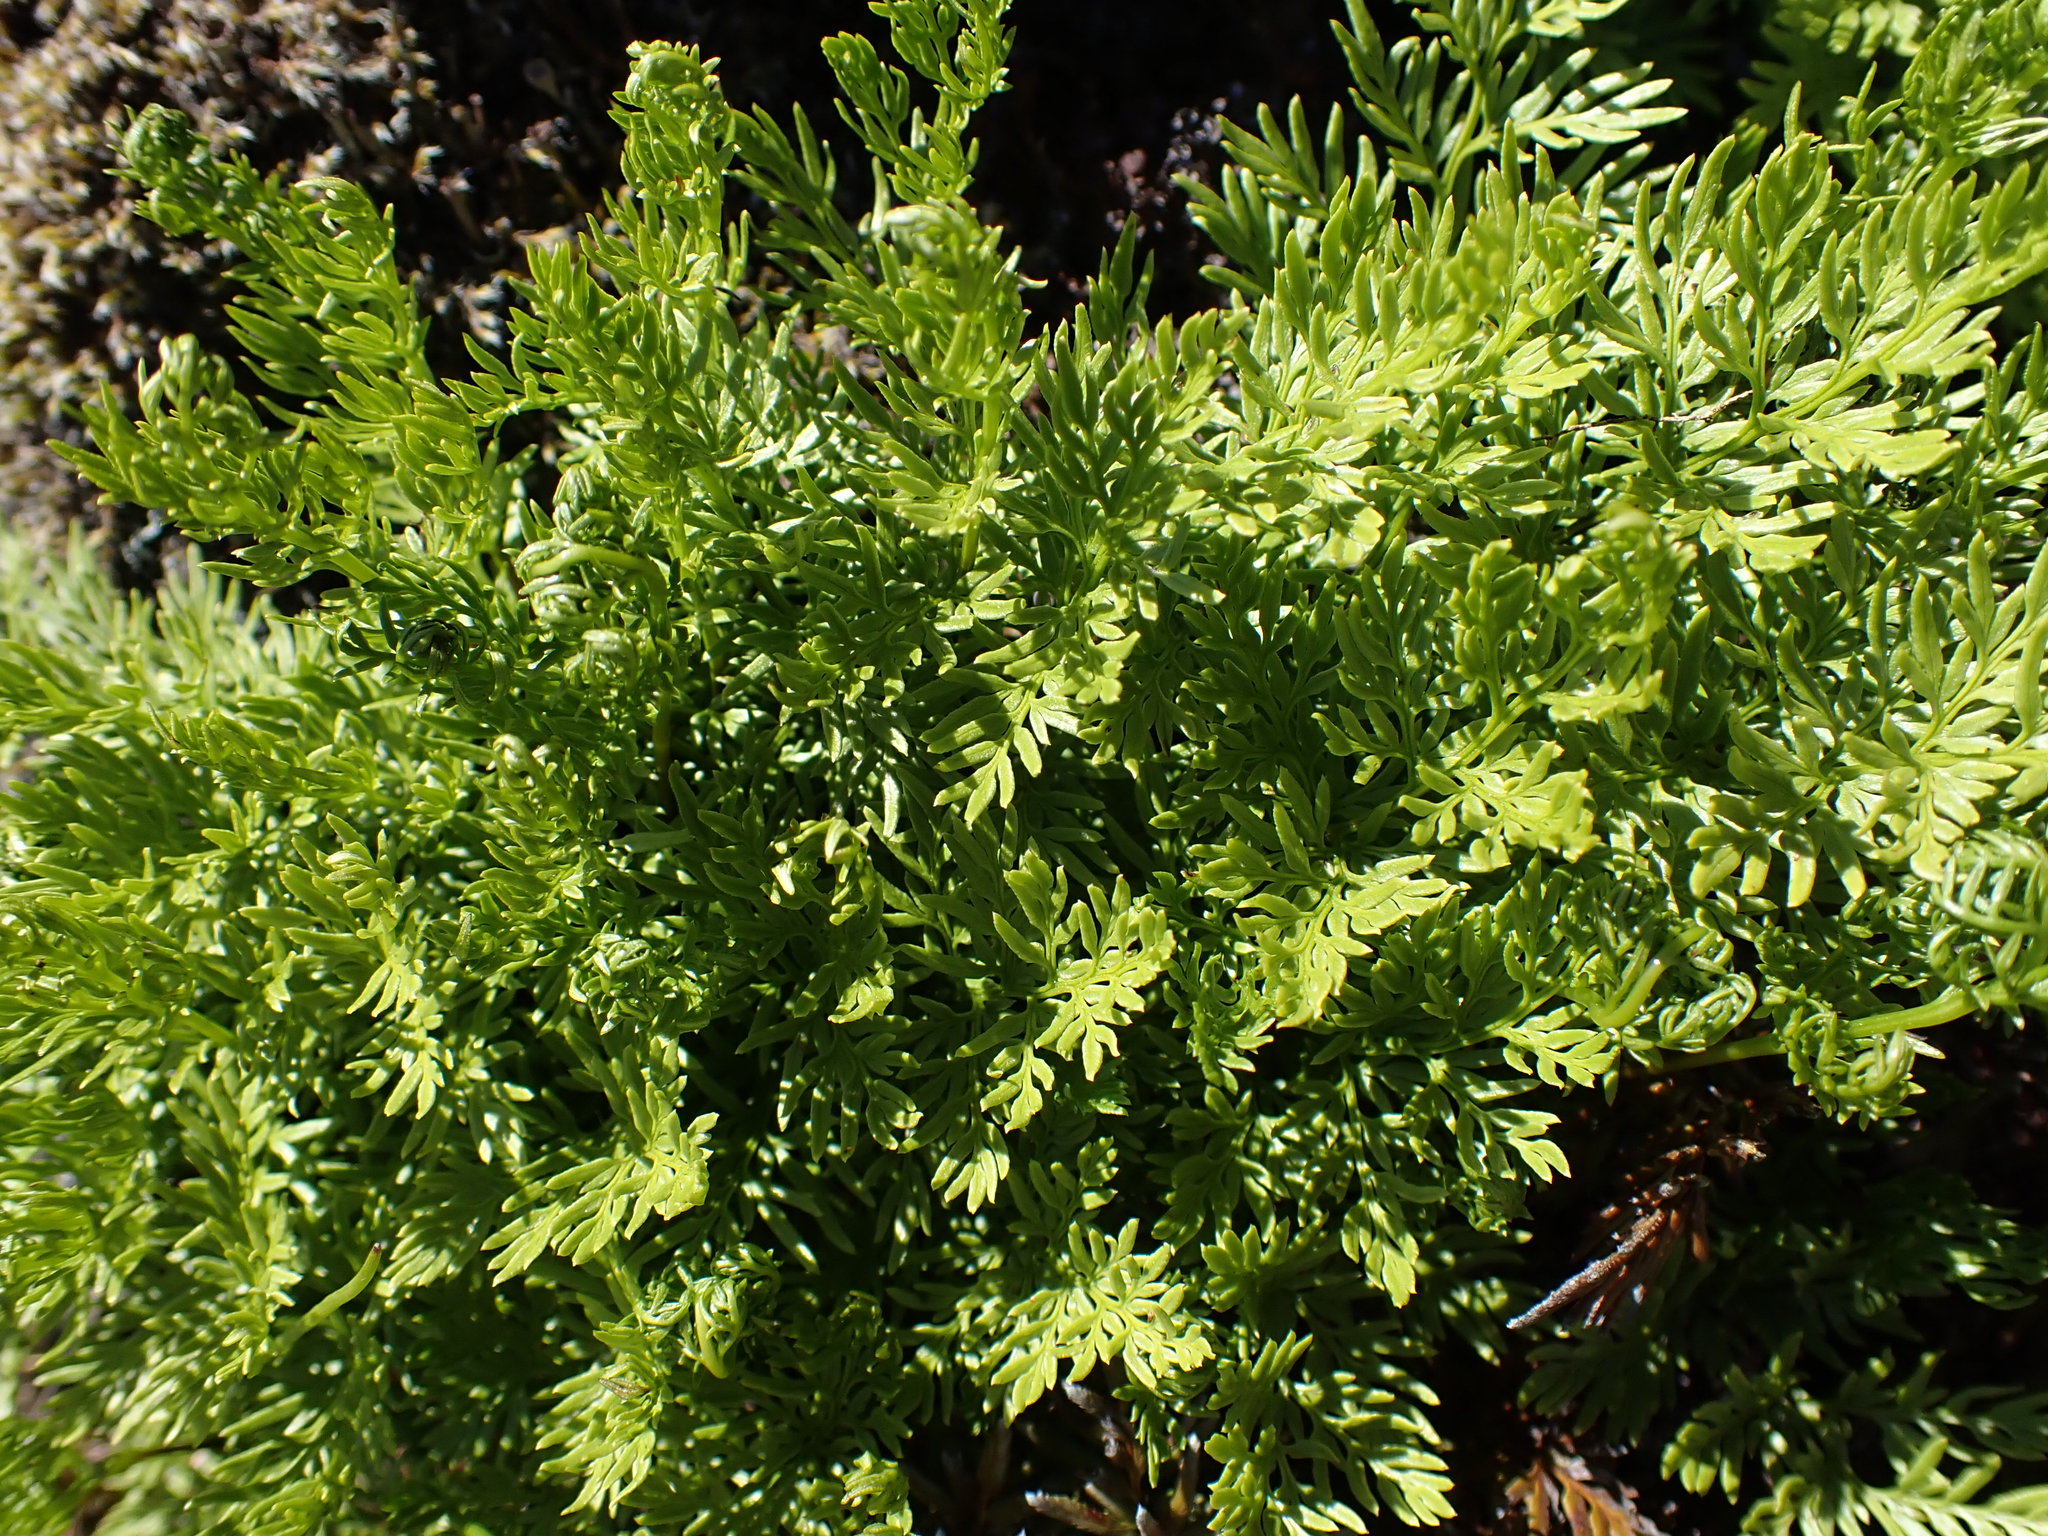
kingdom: Plantae
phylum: Tracheophyta
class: Polypodiopsida
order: Polypodiales
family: Pteridaceae
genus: Aspidotis
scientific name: Aspidotis densa
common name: Indian's dream
